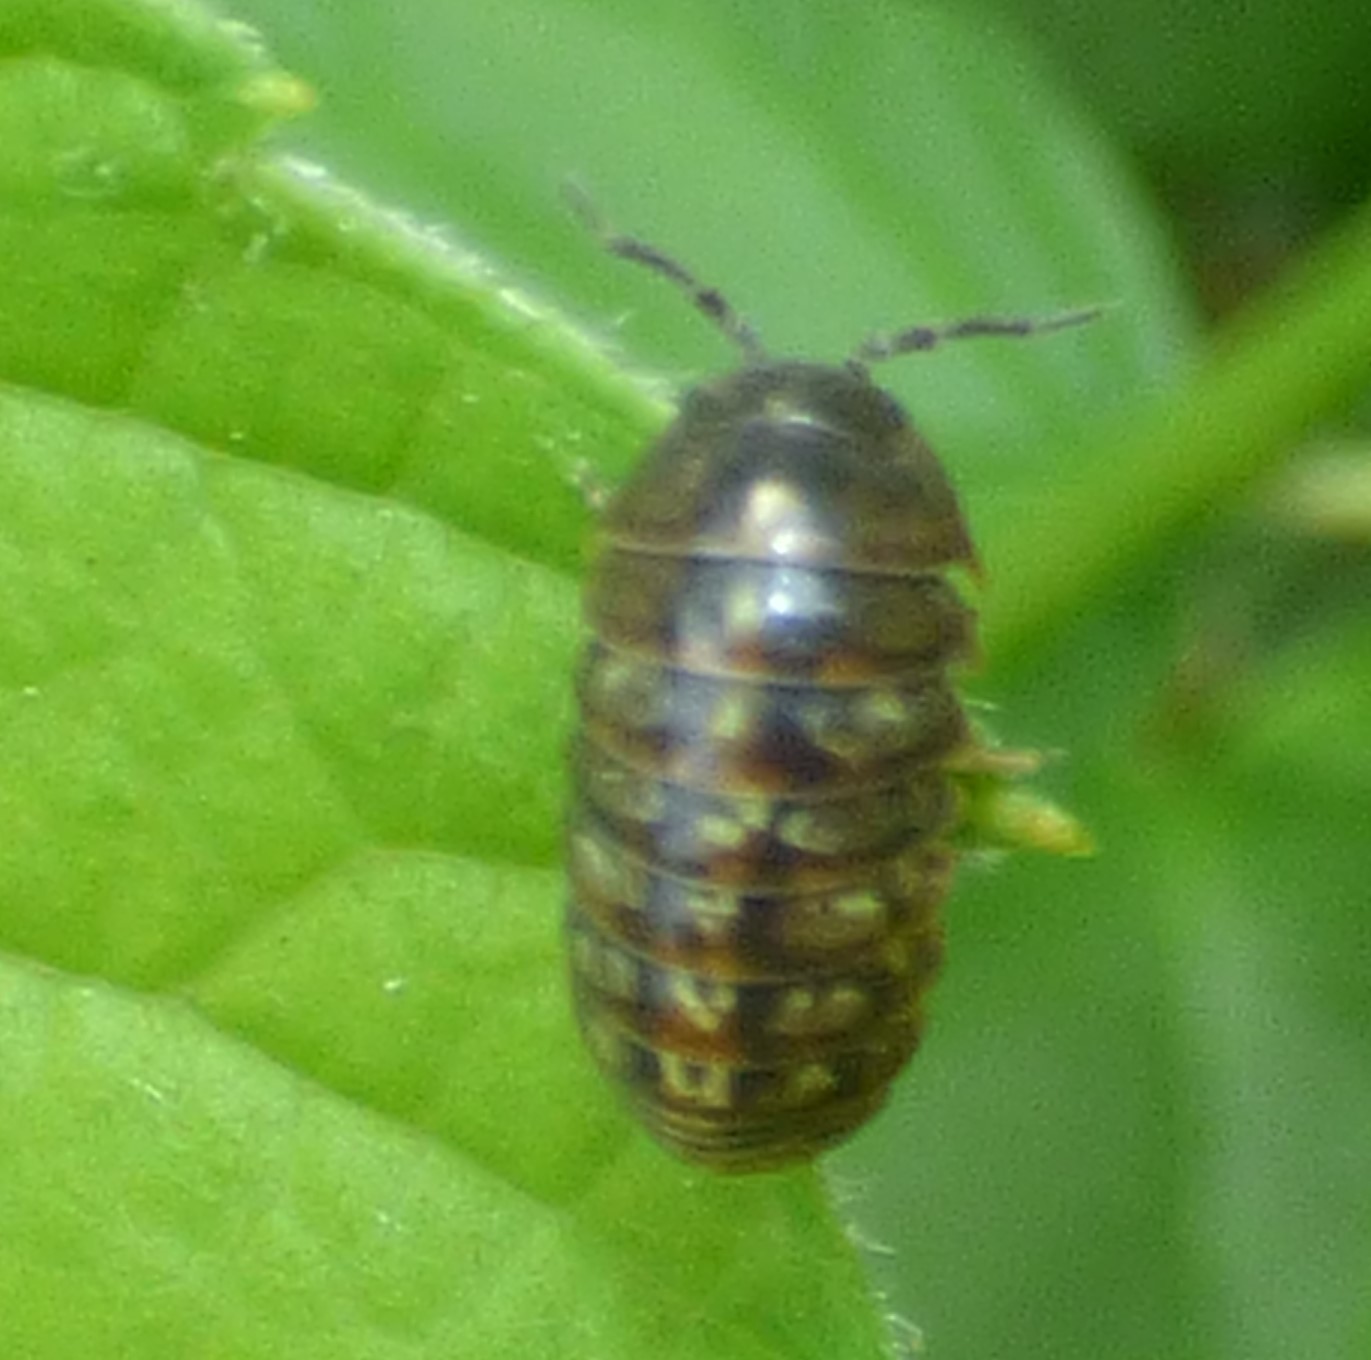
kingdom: Animalia
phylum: Arthropoda
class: Malacostraca
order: Isopoda
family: Armadillidiidae
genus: Armadillidium
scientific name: Armadillidium vulgare
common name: Common pill woodlouse
